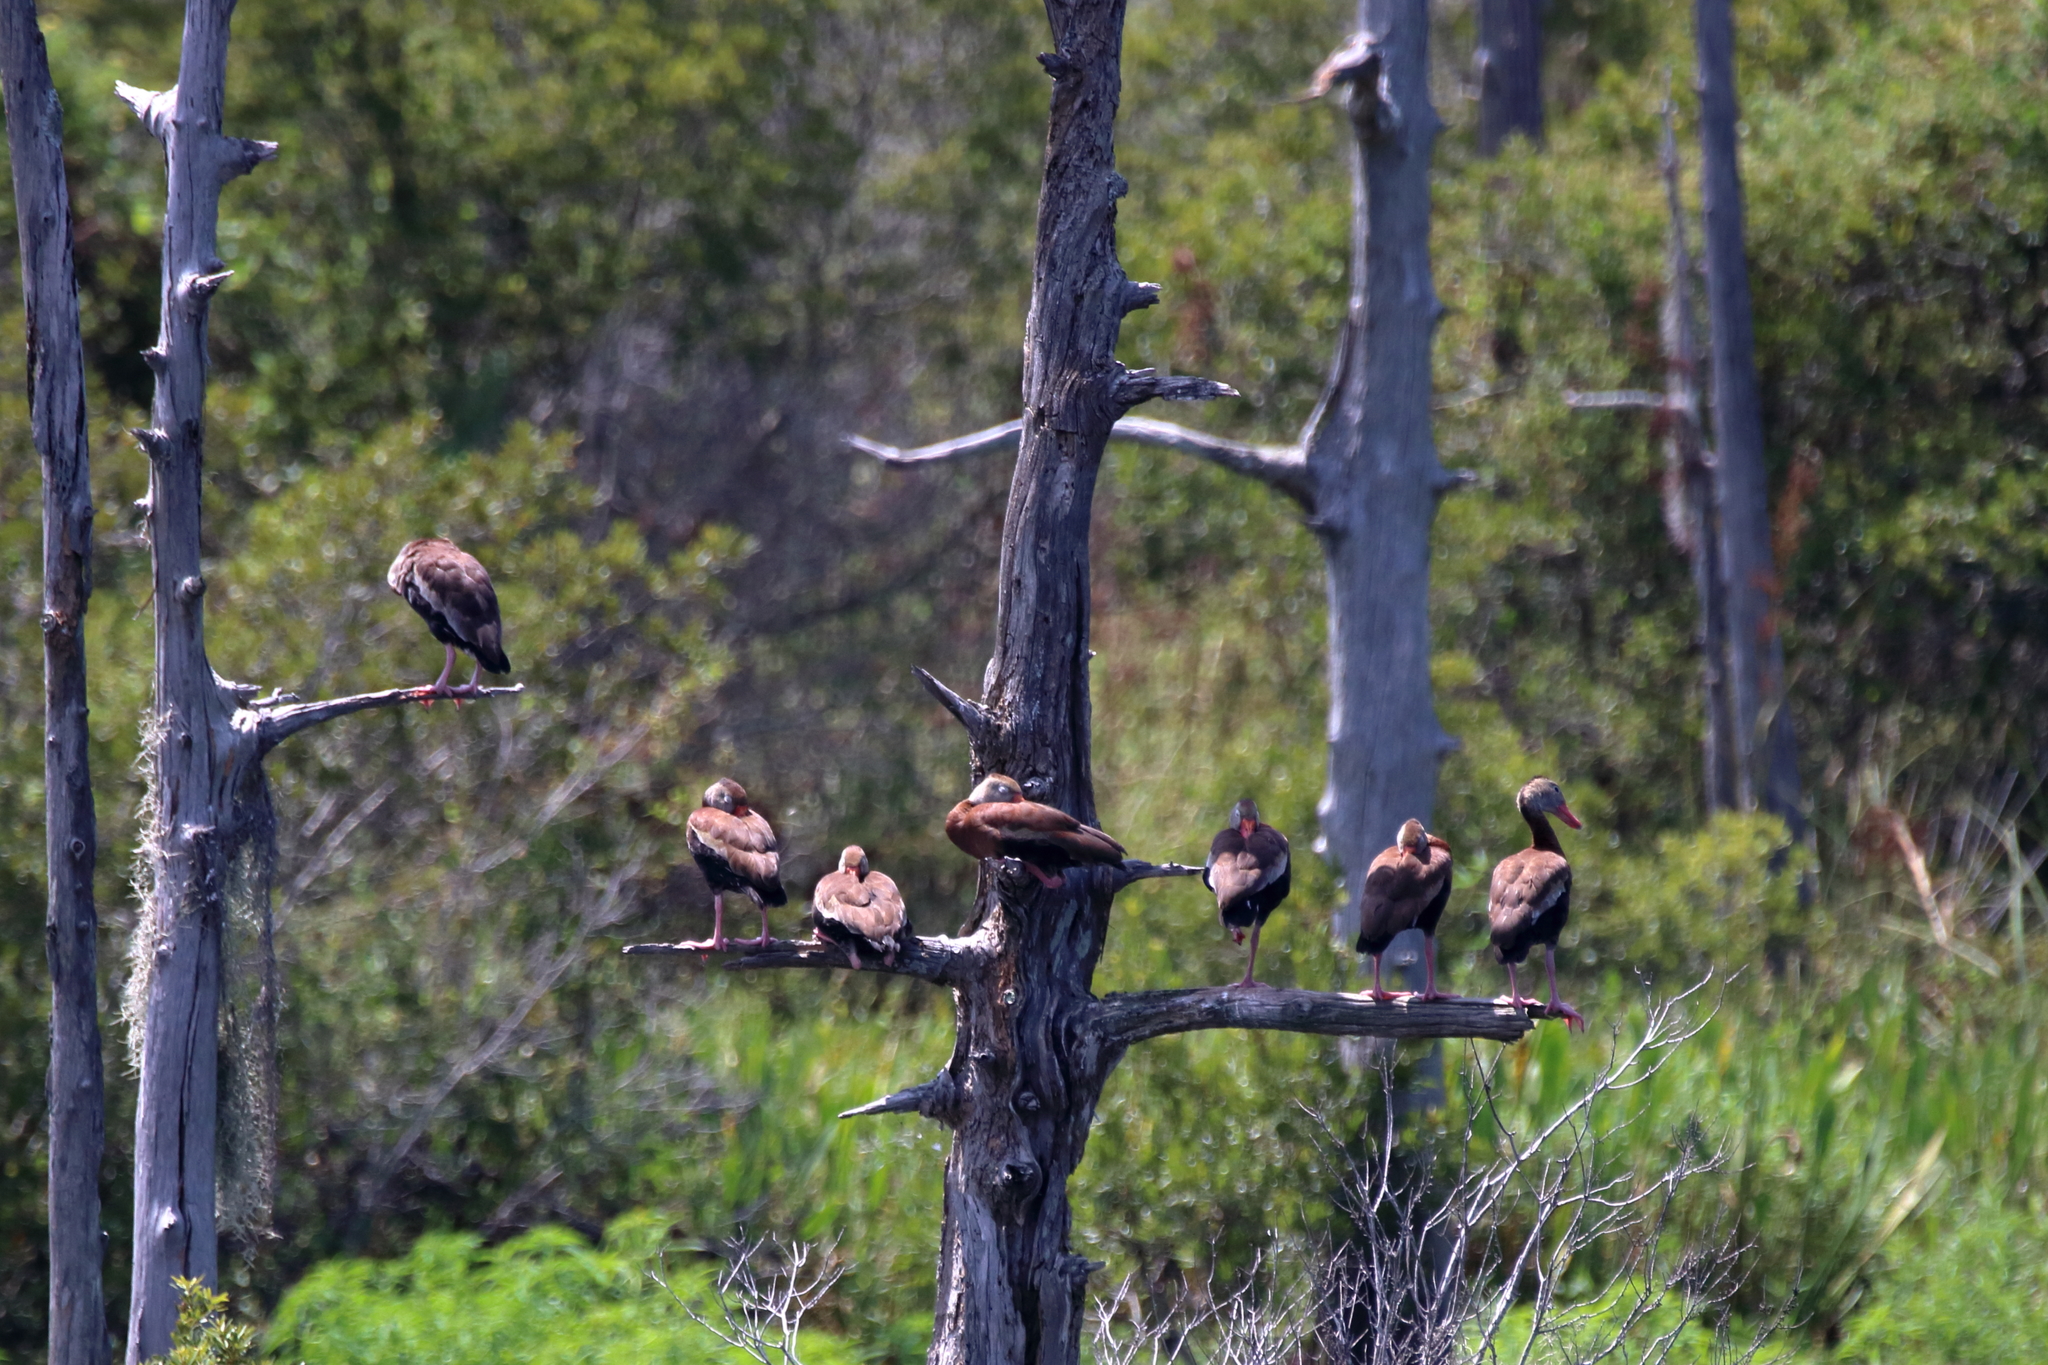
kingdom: Animalia
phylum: Chordata
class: Aves
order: Anseriformes
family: Anatidae
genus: Dendrocygna
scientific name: Dendrocygna autumnalis
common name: Black-bellied whistling duck
